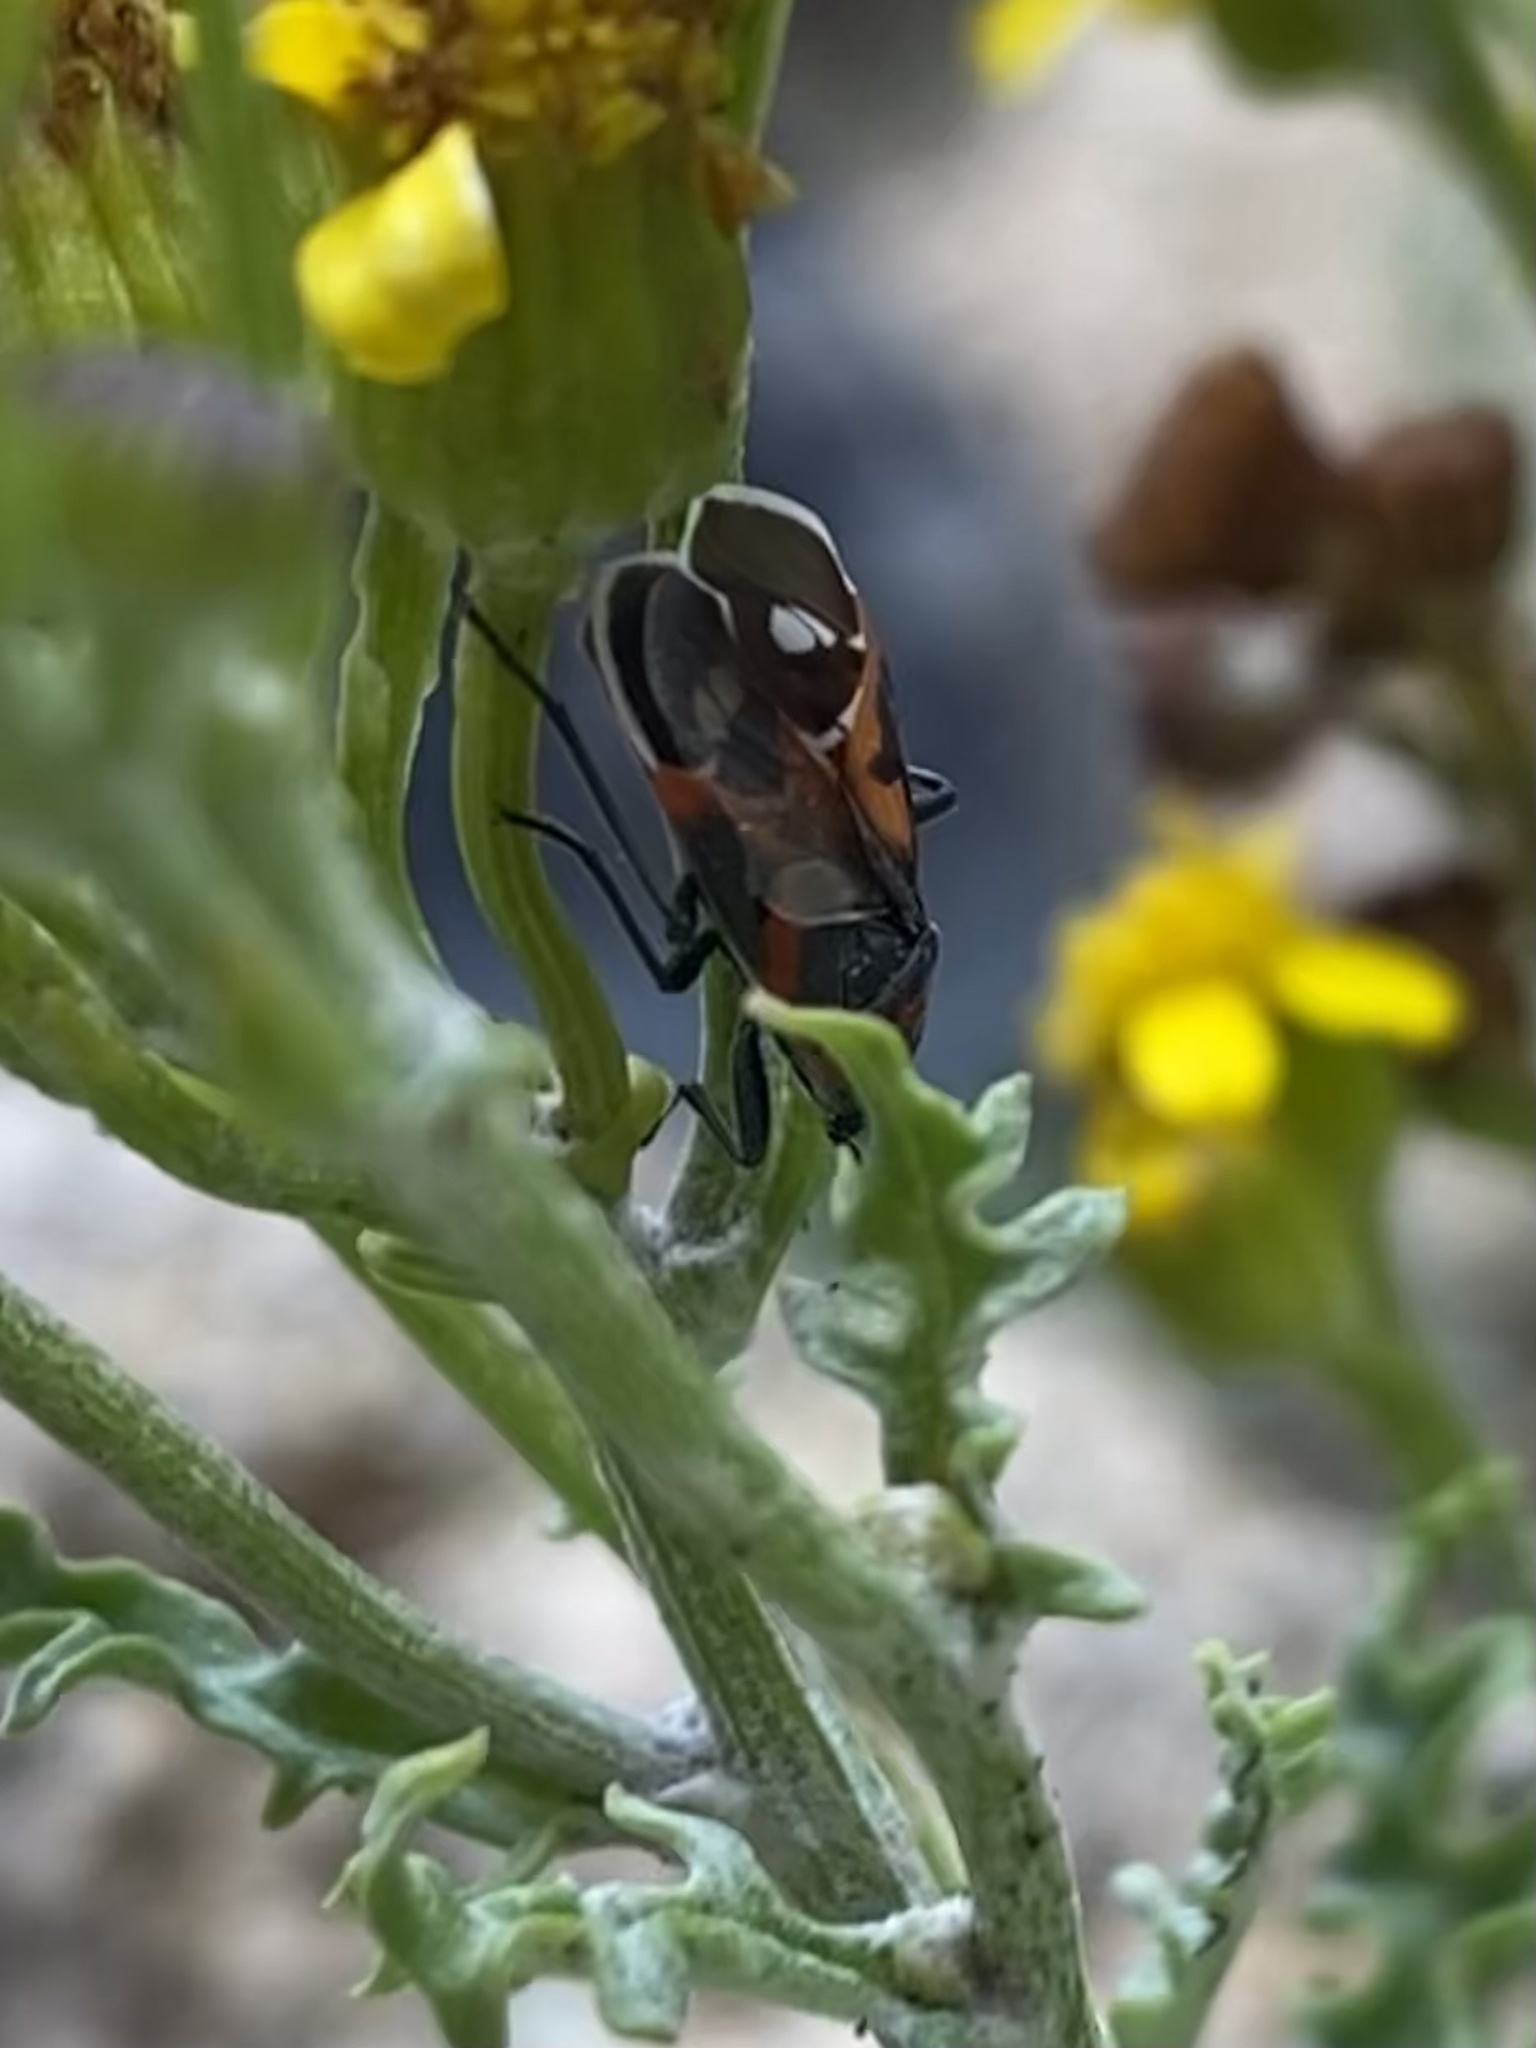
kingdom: Animalia
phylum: Arthropoda
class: Insecta
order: Hemiptera
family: Lygaeidae
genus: Lygaeus
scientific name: Lygaeus kalmii
